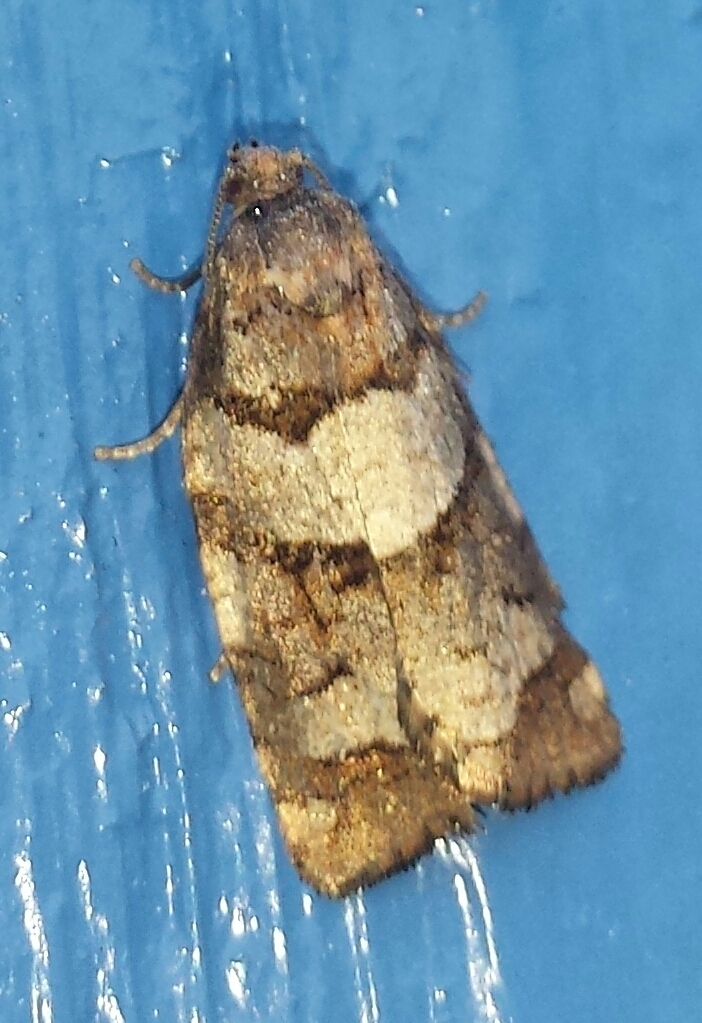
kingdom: Animalia
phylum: Arthropoda
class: Insecta
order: Lepidoptera
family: Tortricidae
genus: Archips
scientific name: Archips alberta
